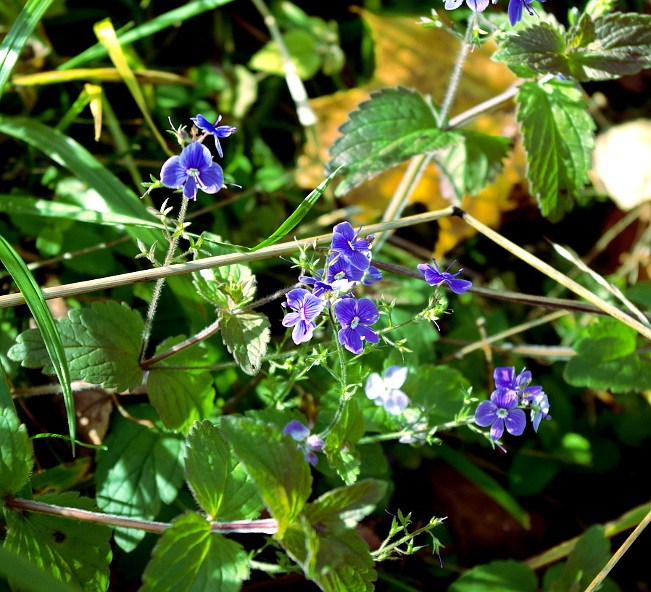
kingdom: Plantae
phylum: Tracheophyta
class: Magnoliopsida
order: Lamiales
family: Plantaginaceae
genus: Veronica
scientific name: Veronica chamaedrys
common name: Germander speedwell
